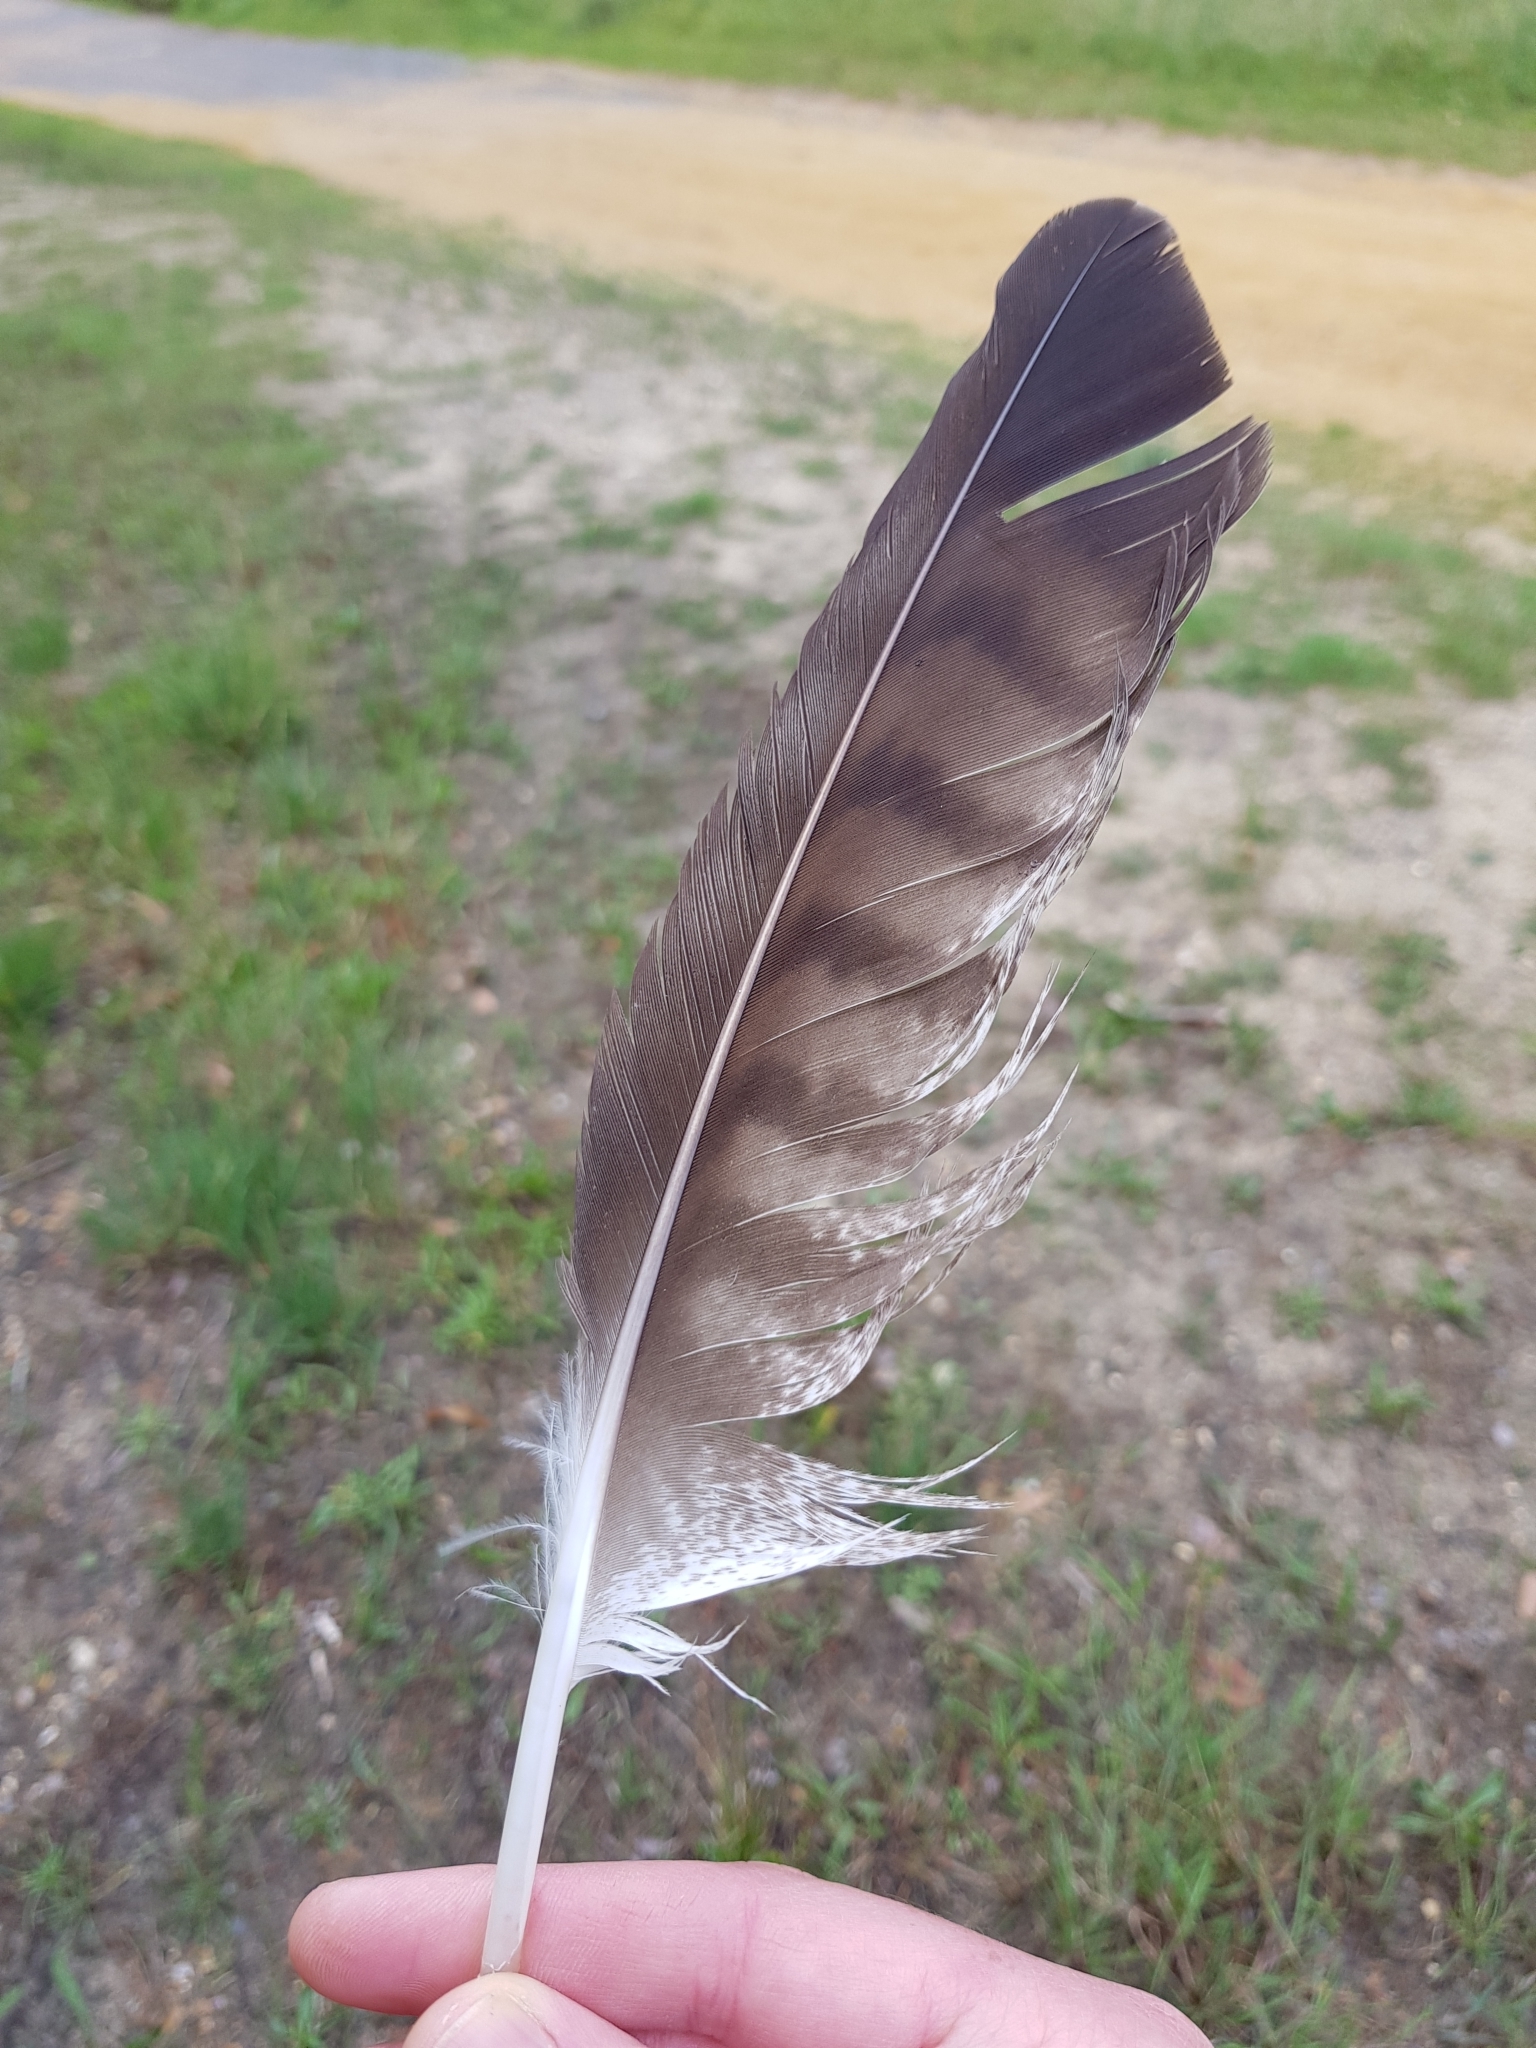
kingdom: Animalia
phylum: Chordata
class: Aves
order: Accipitriformes
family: Accipitridae
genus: Buteo
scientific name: Buteo buteo
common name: Common buzzard
